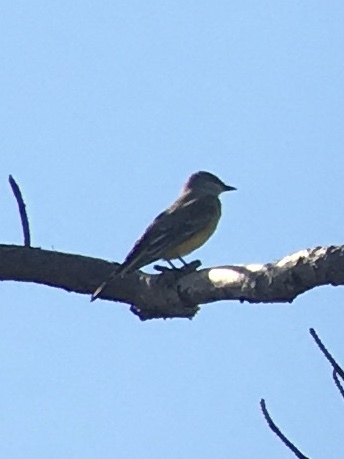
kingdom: Animalia
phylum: Chordata
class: Aves
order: Passeriformes
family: Tyrannidae
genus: Tyrannus
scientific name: Tyrannus verticalis
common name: Western kingbird
